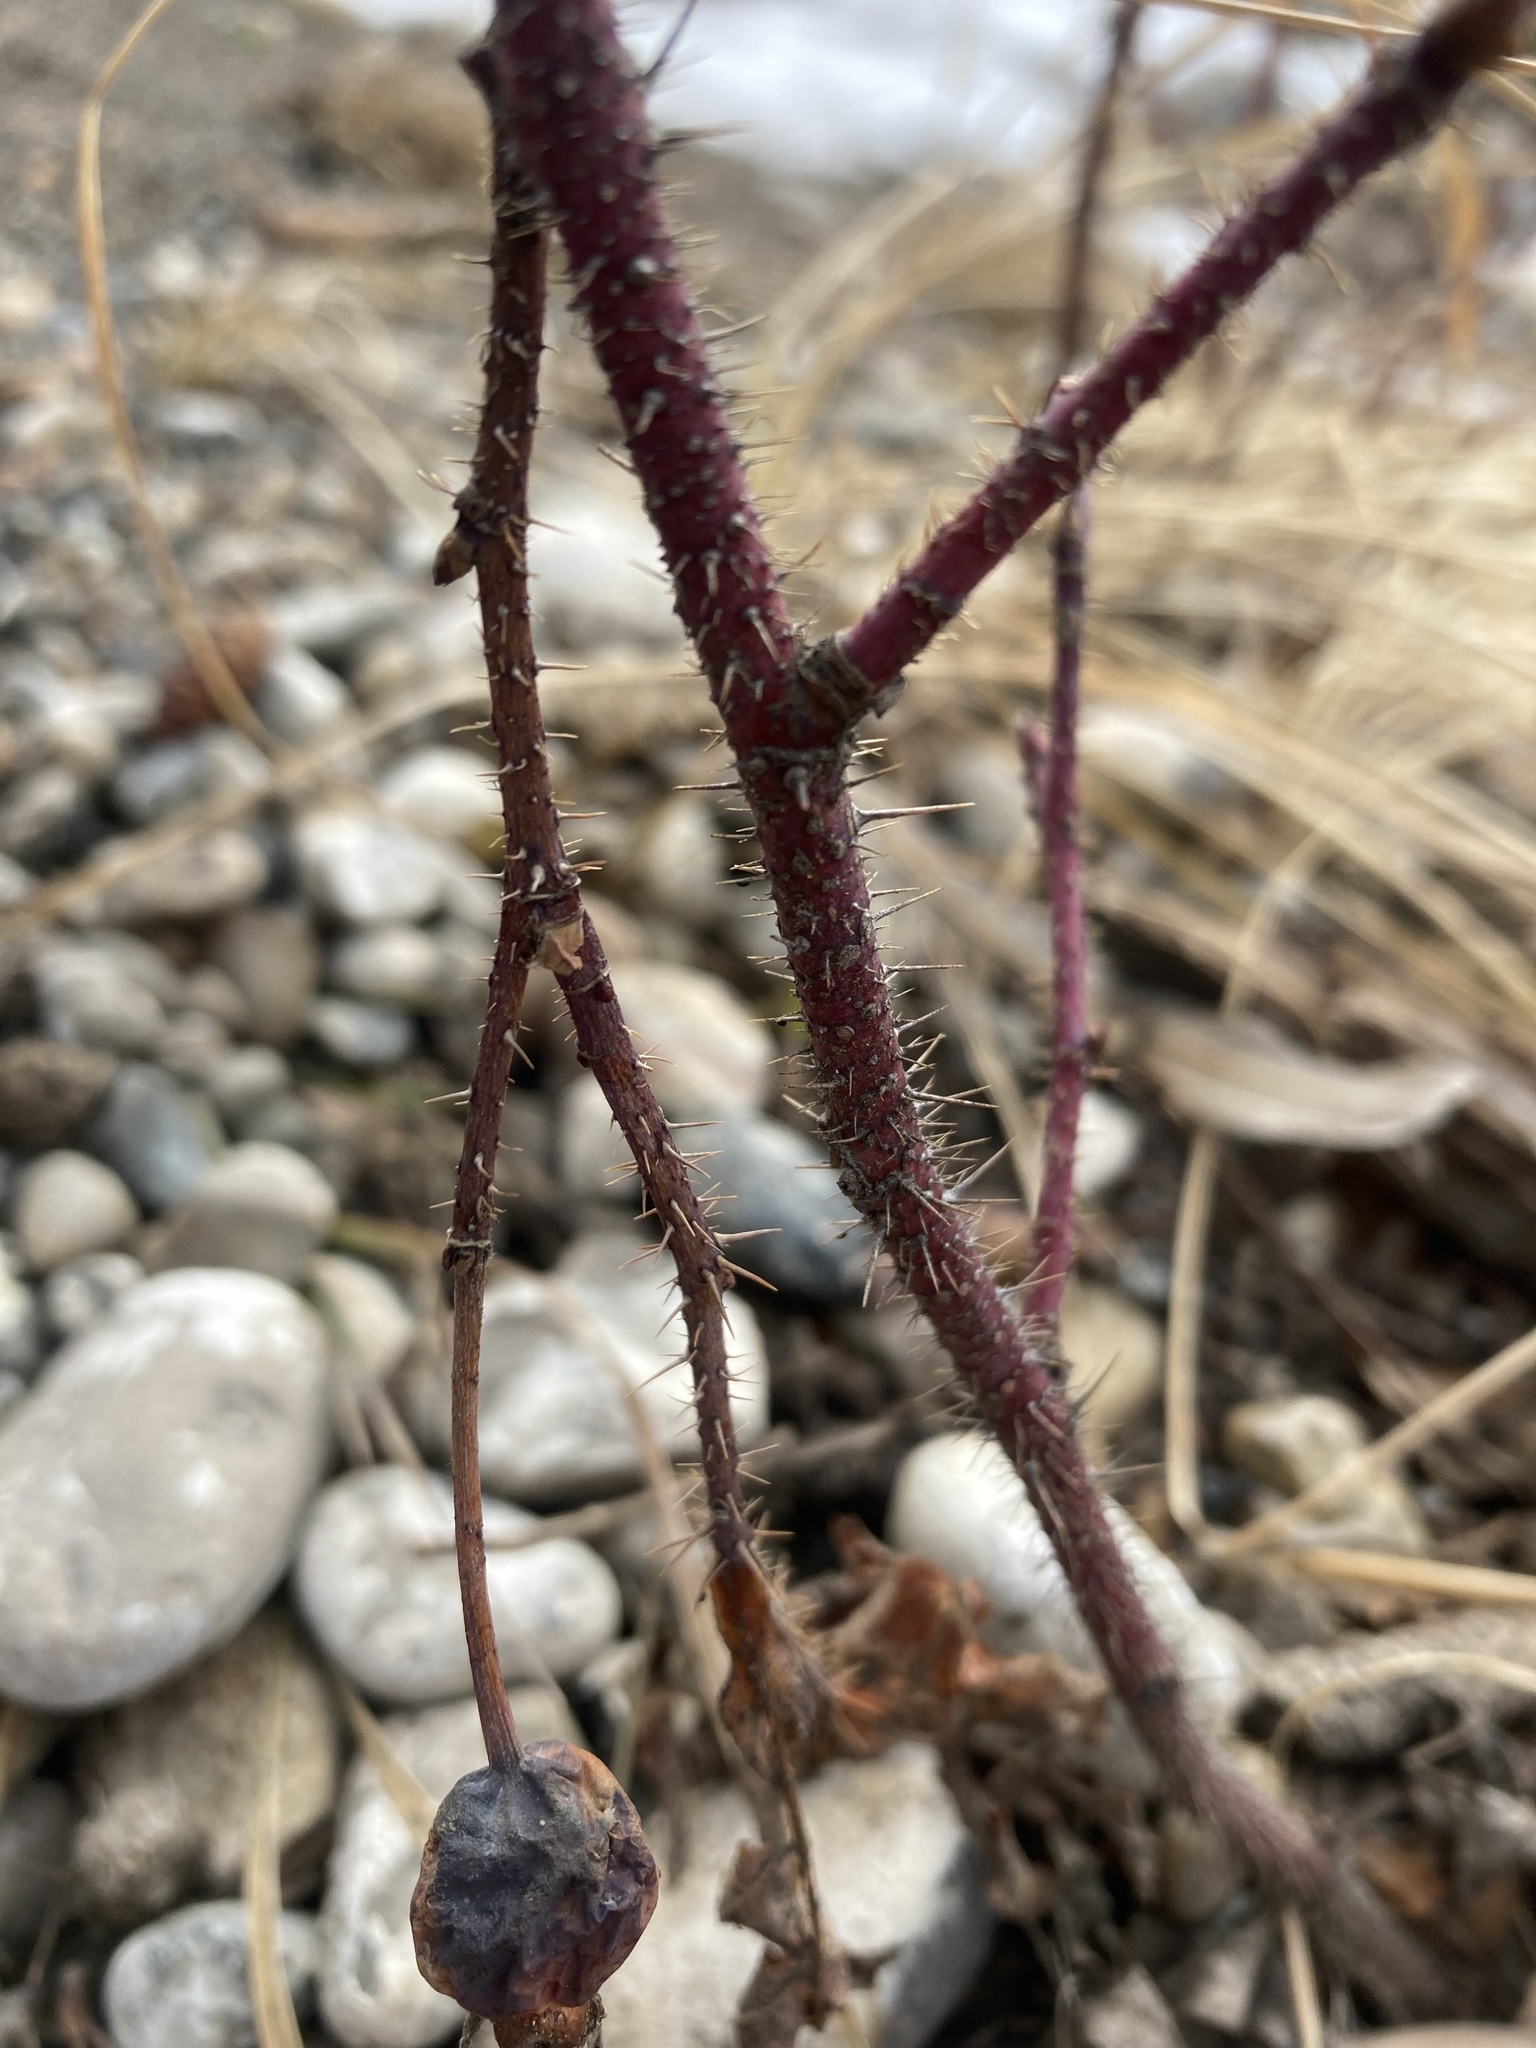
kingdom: Plantae
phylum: Tracheophyta
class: Magnoliopsida
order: Rosales
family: Rosaceae
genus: Rosa
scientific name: Rosa acicularis
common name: Prickly rose
